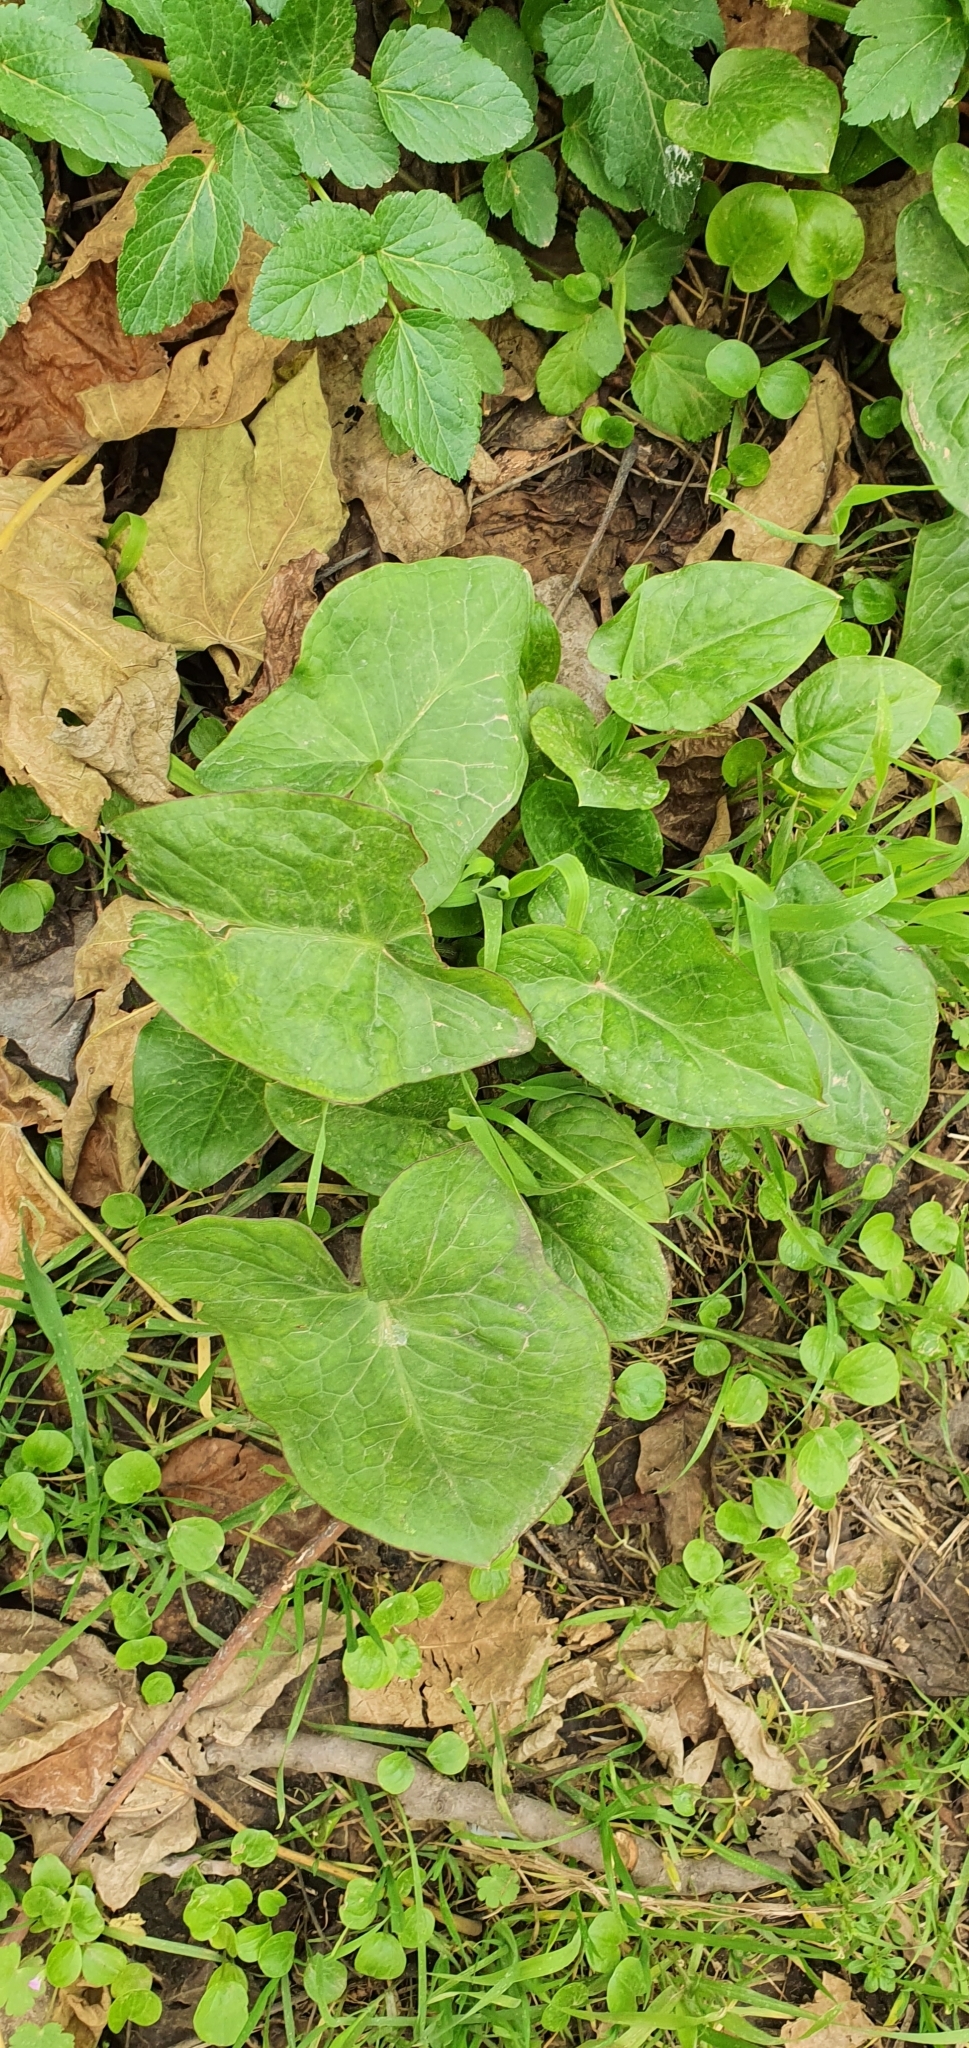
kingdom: Plantae
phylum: Tracheophyta
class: Liliopsida
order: Alismatales
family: Araceae
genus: Arum
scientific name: Arum italicum
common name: Italian lords-and-ladies
